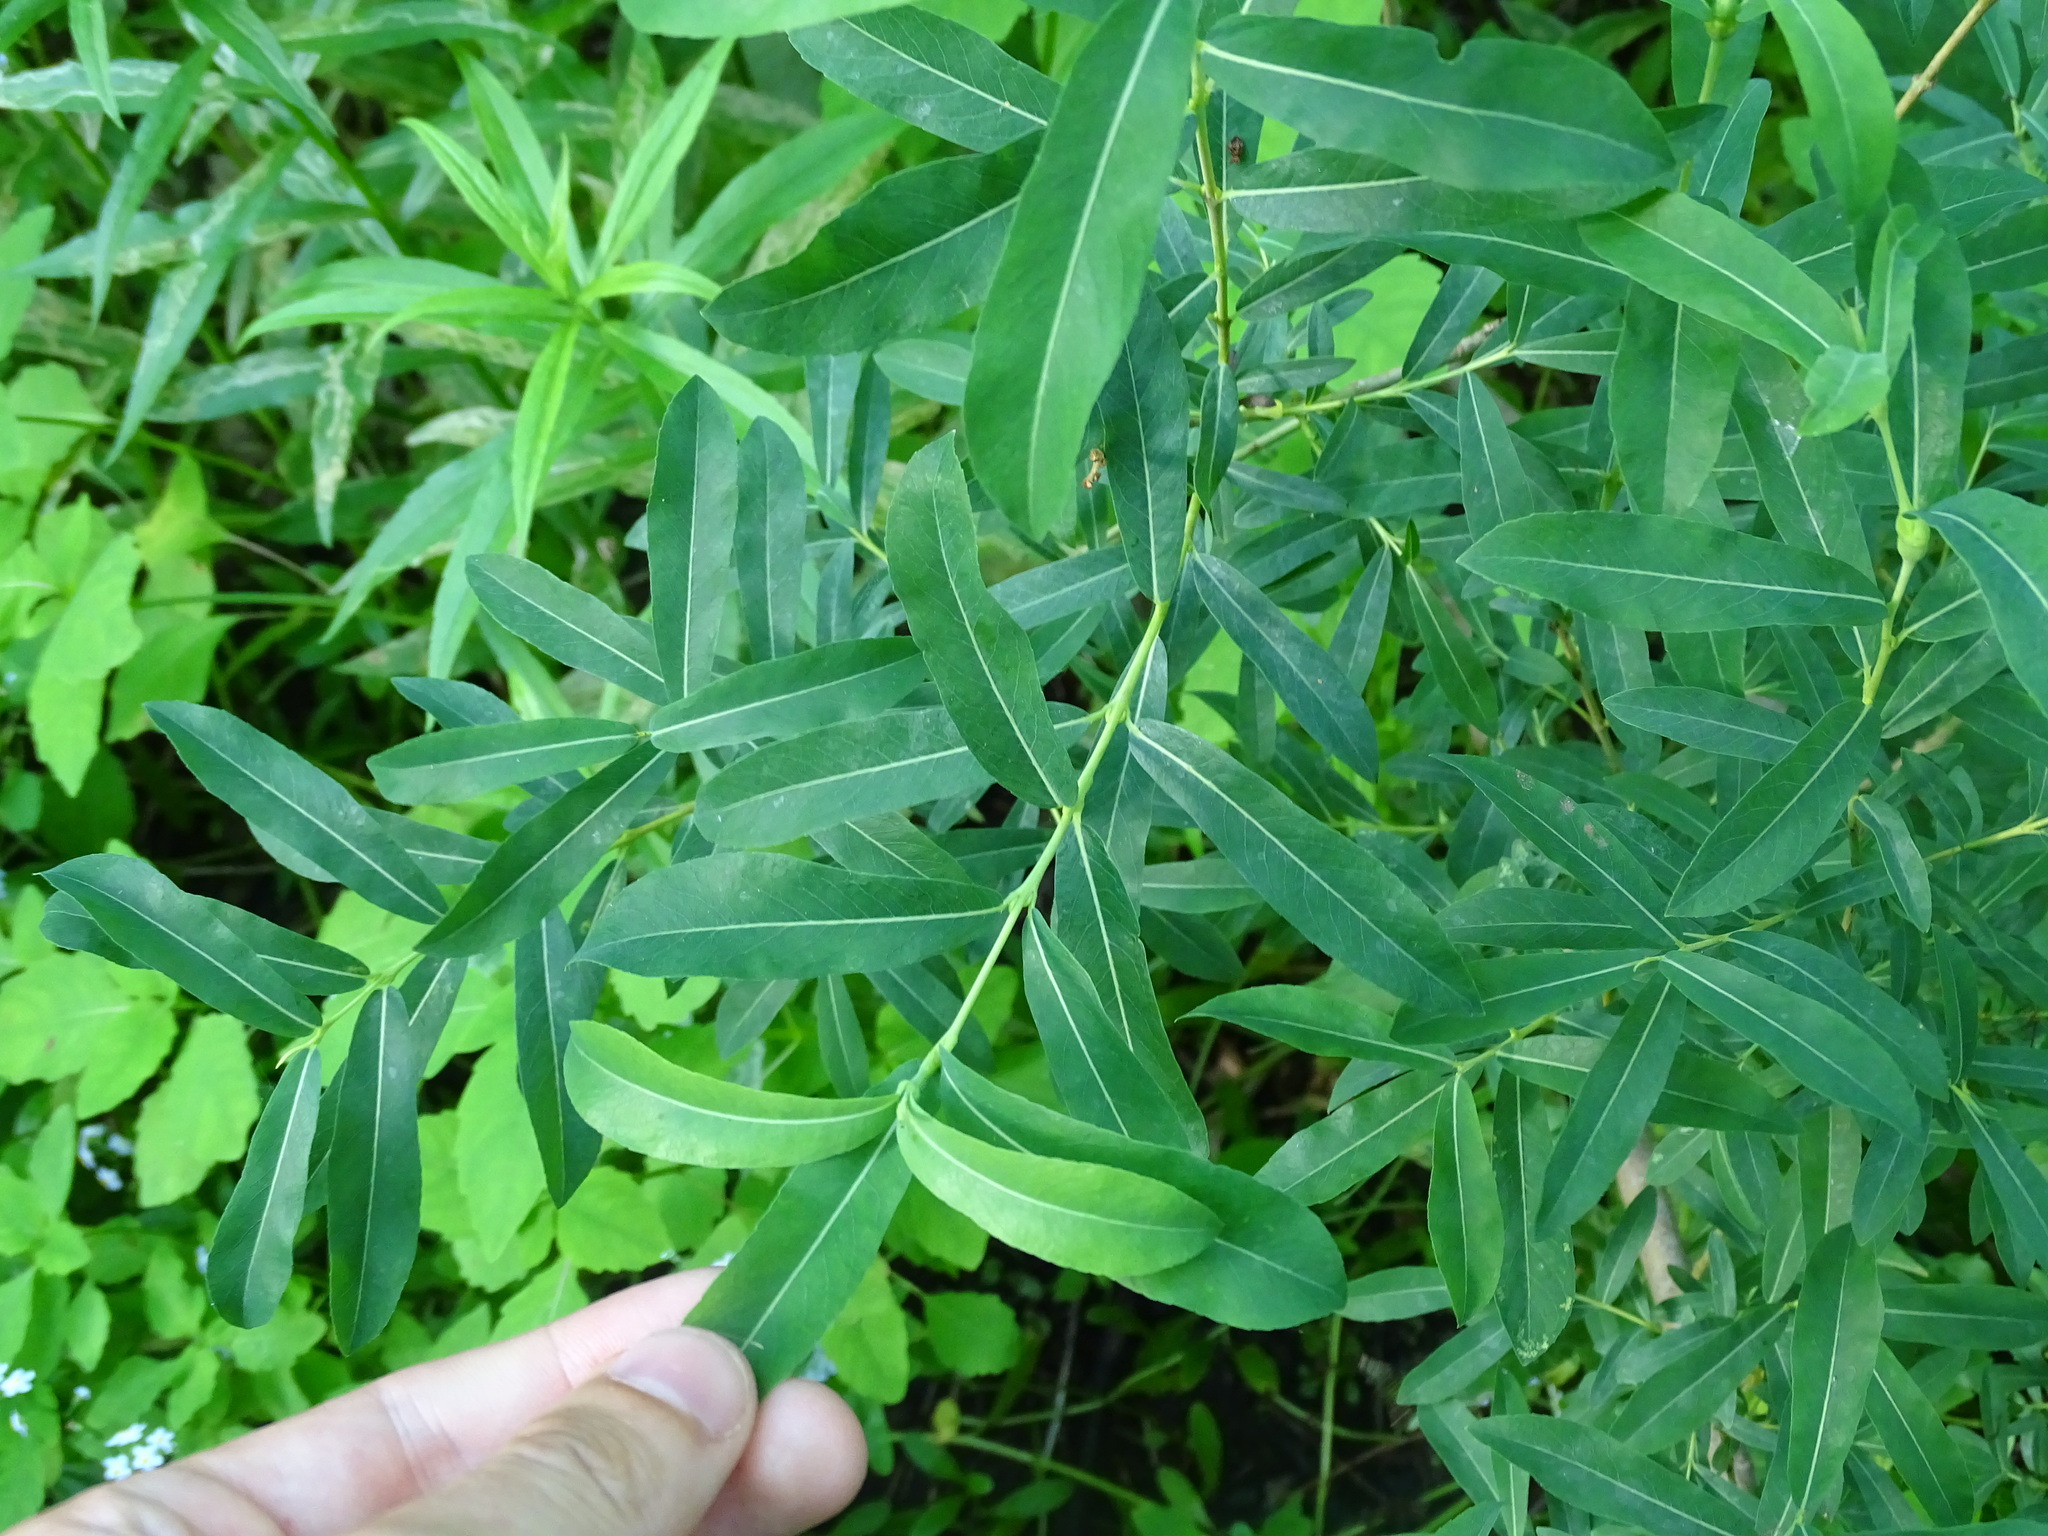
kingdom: Plantae
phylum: Tracheophyta
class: Magnoliopsida
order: Malpighiales
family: Salicaceae
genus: Salix
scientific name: Salix purpurea
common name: Purple willow
